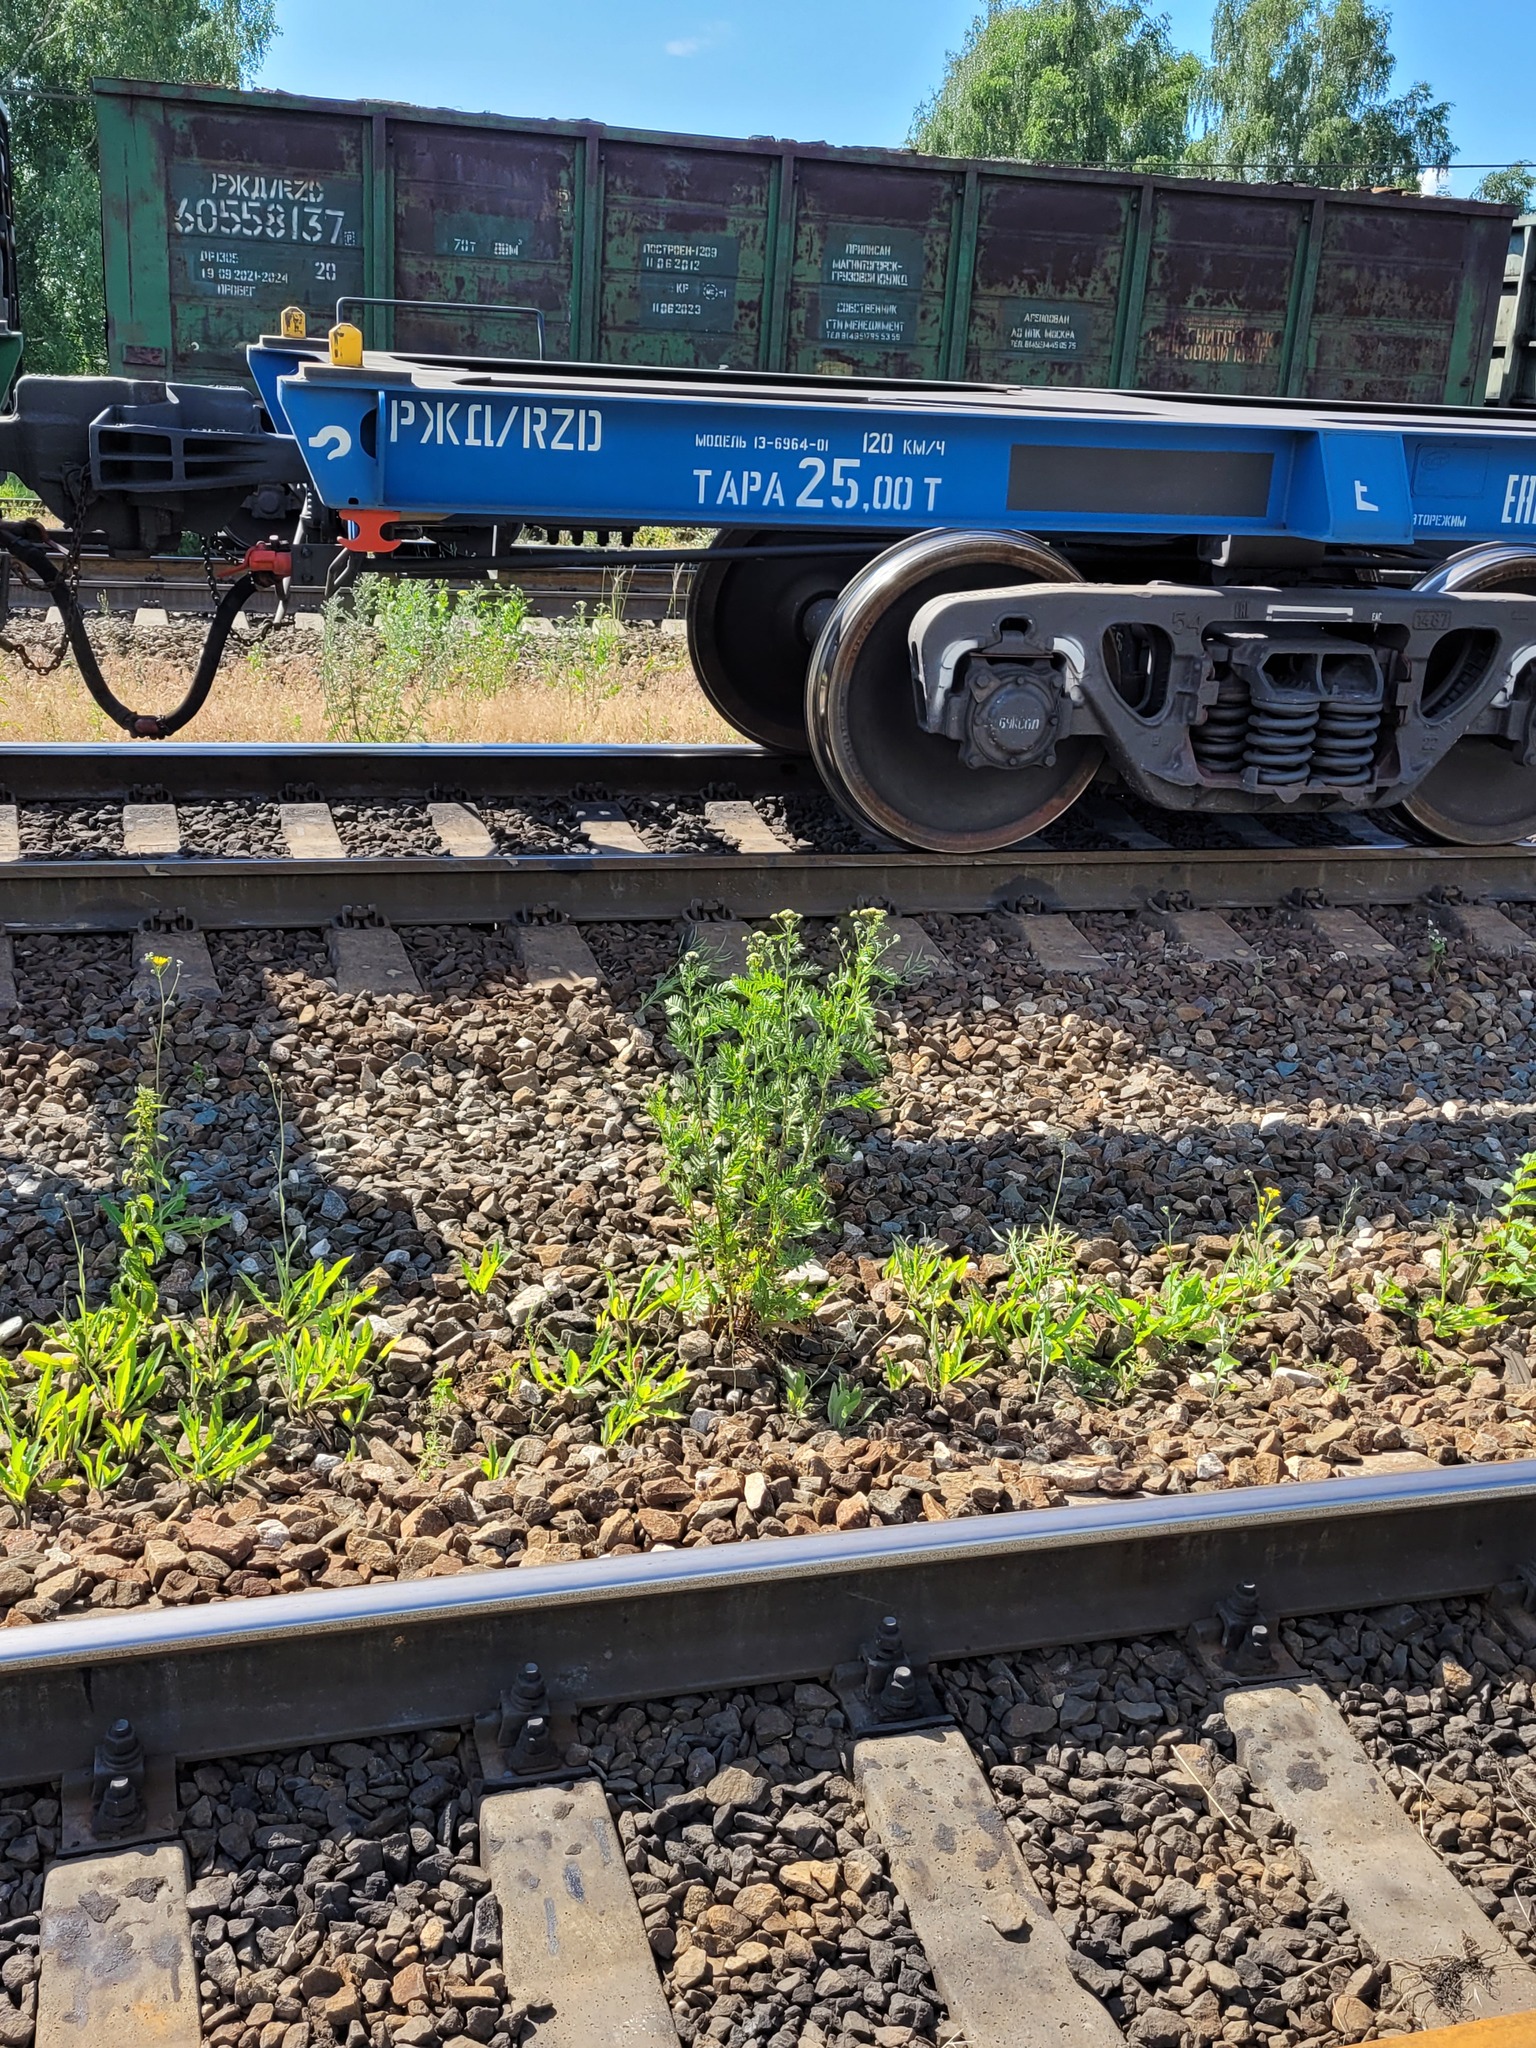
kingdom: Plantae
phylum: Tracheophyta
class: Magnoliopsida
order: Asterales
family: Asteraceae
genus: Tanacetum
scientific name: Tanacetum vulgare
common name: Common tansy
